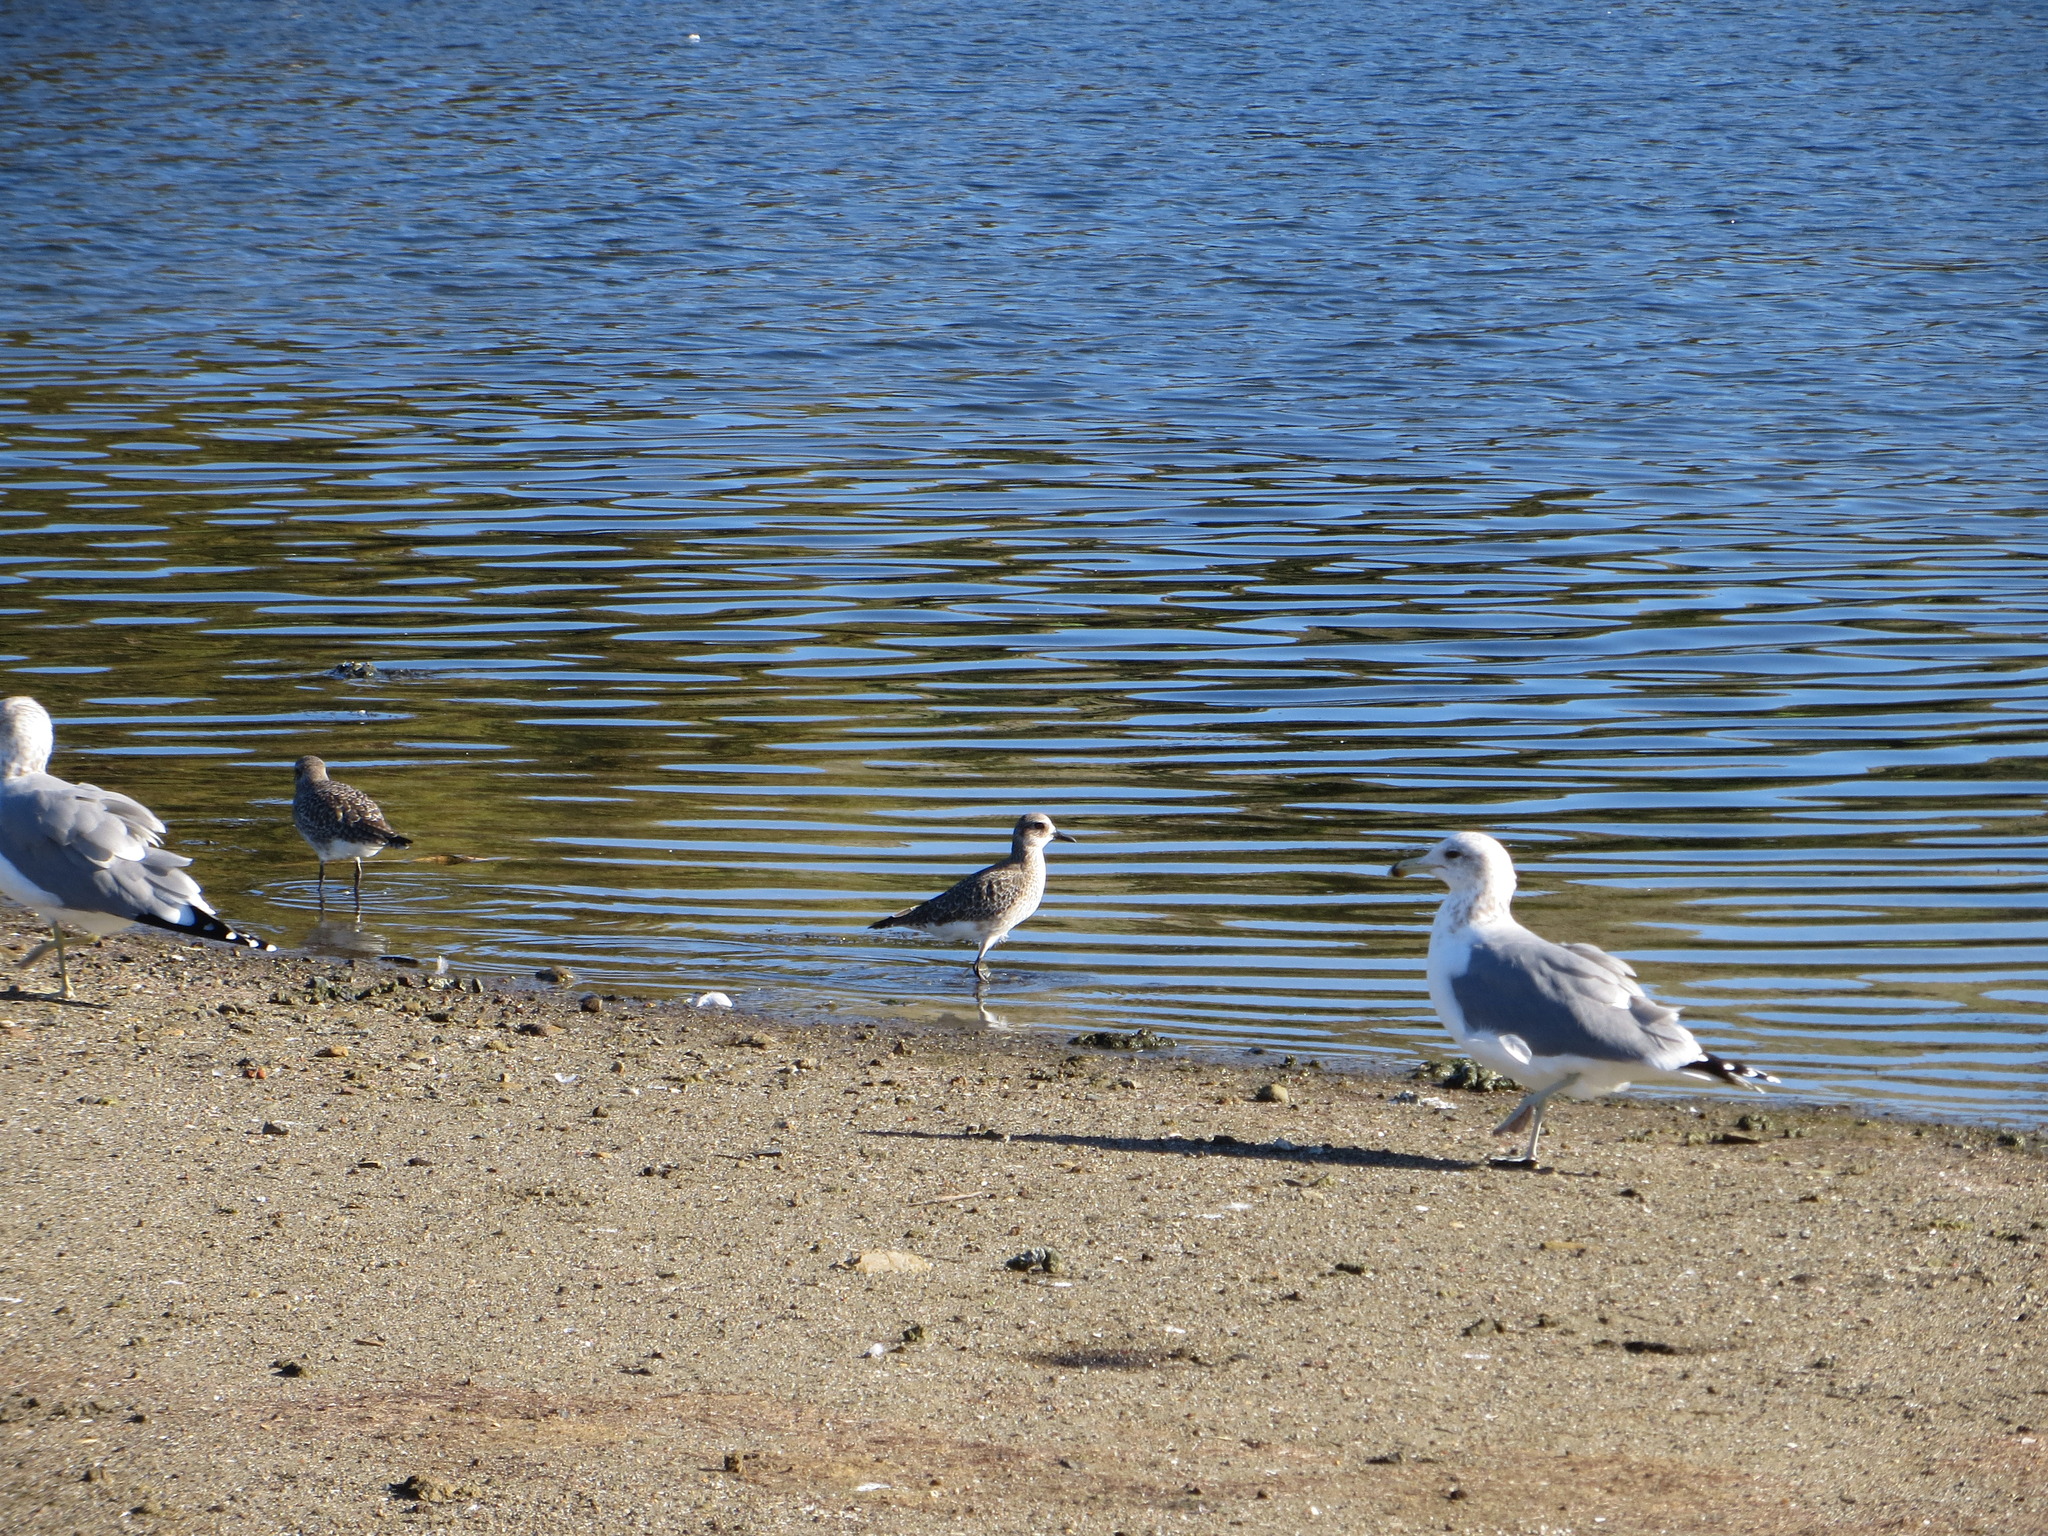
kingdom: Animalia
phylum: Chordata
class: Aves
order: Charadriiformes
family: Charadriidae
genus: Pluvialis
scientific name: Pluvialis squatarola
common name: Grey plover
